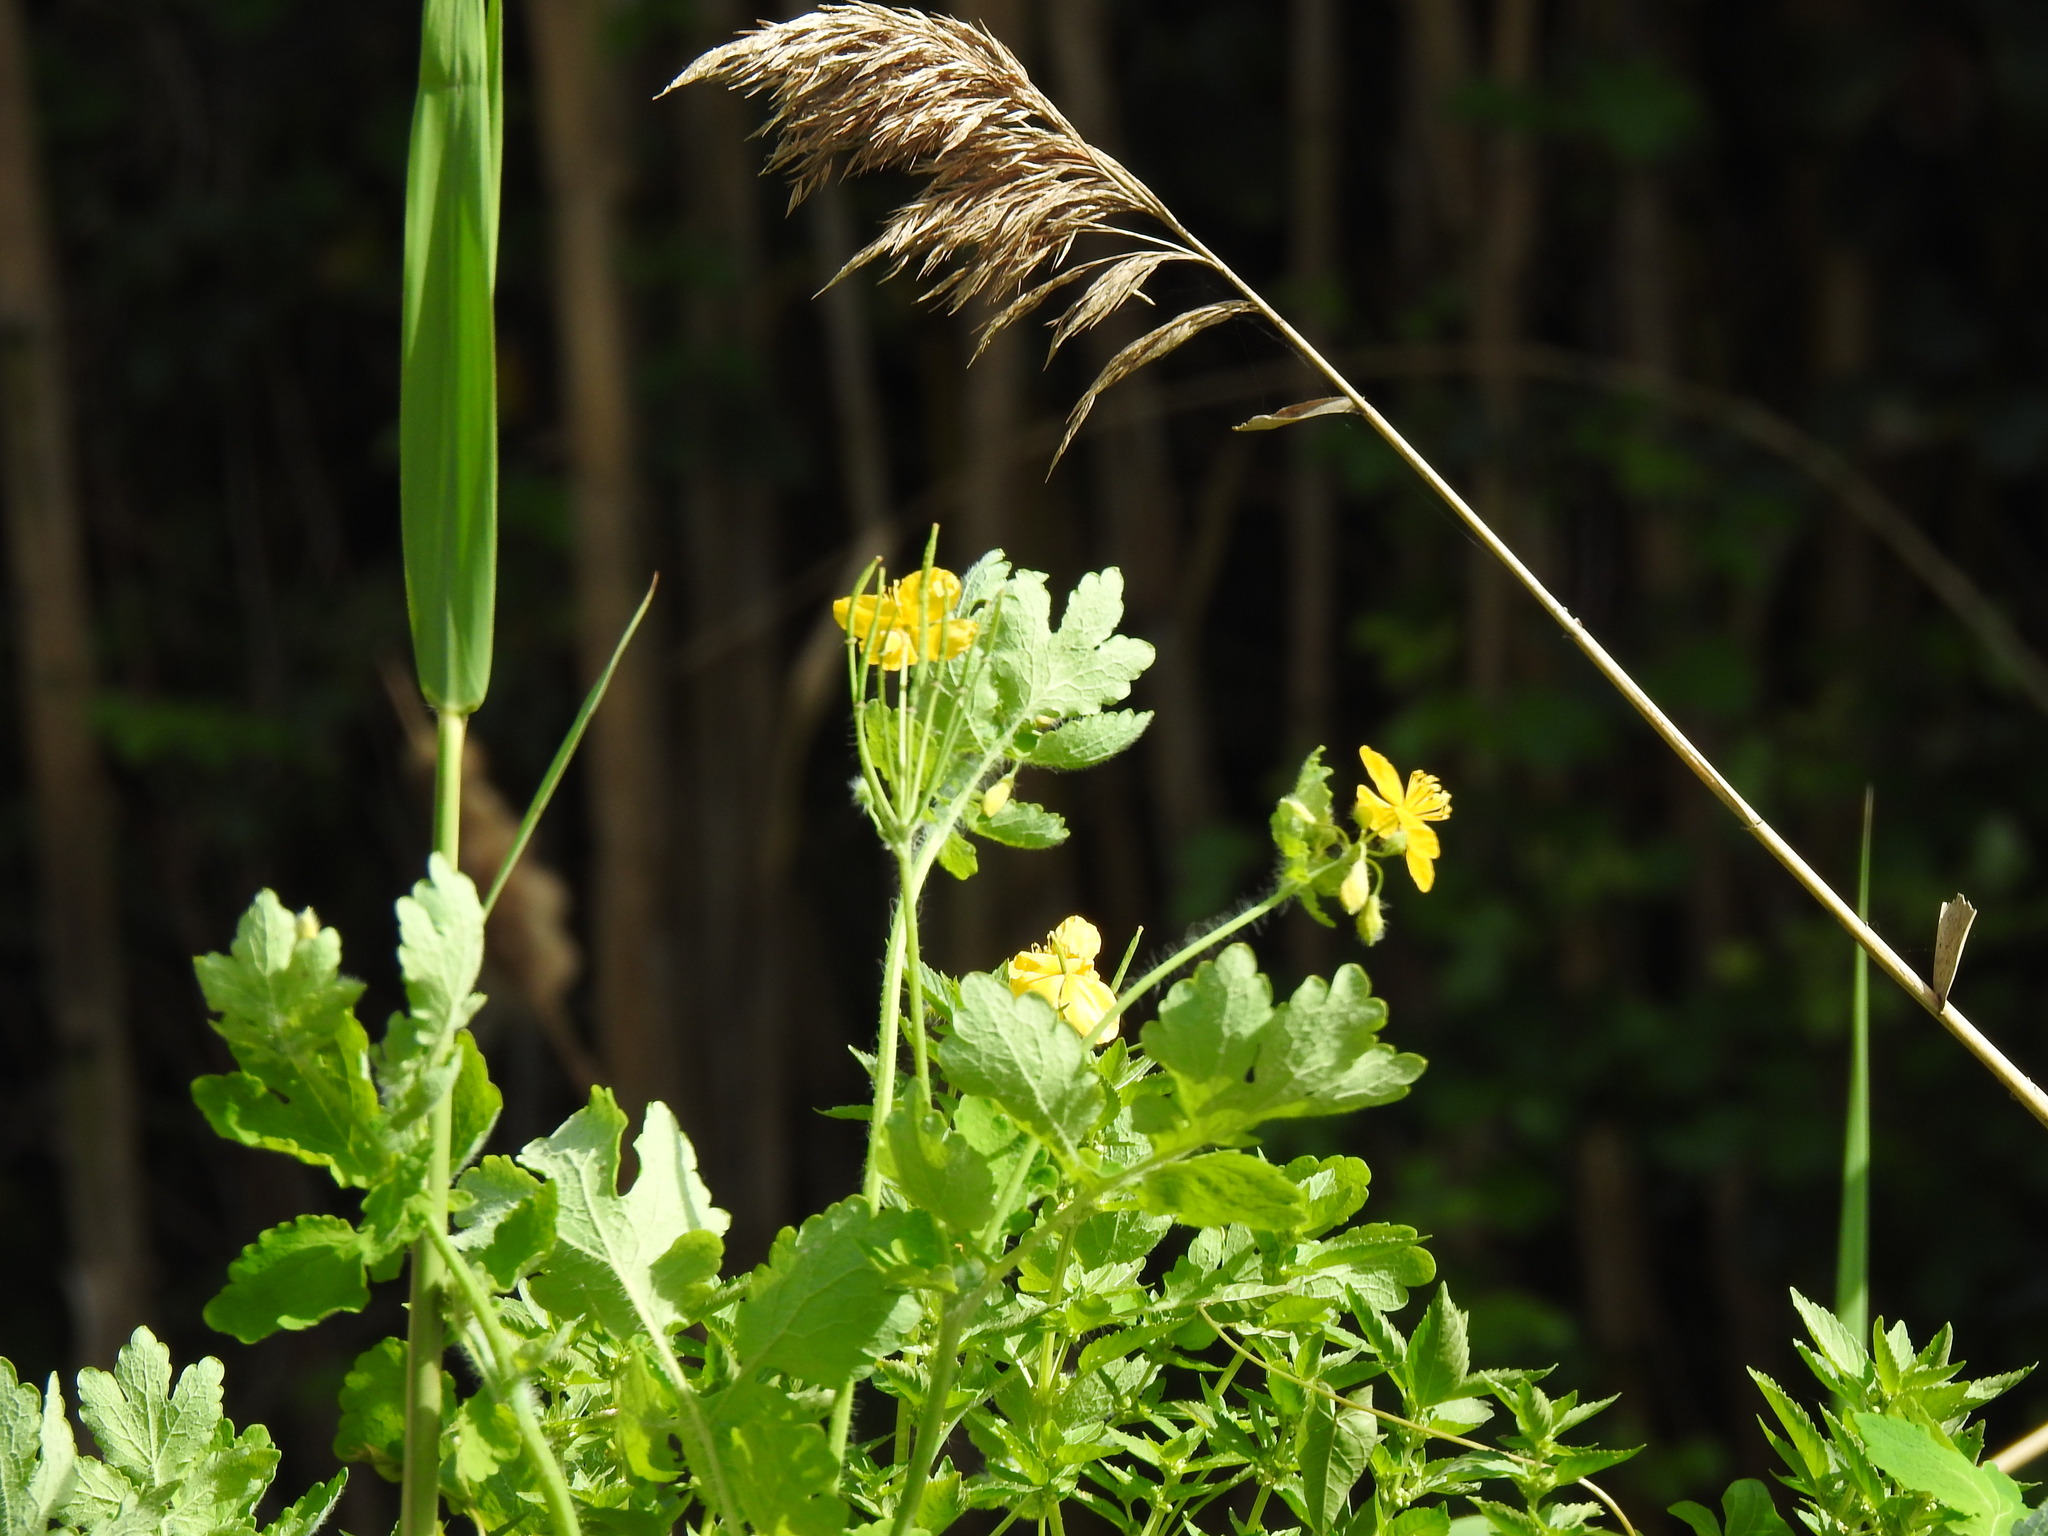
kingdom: Plantae
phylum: Tracheophyta
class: Magnoliopsida
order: Ranunculales
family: Papaveraceae
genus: Chelidonium
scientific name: Chelidonium majus
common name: Greater celandine
